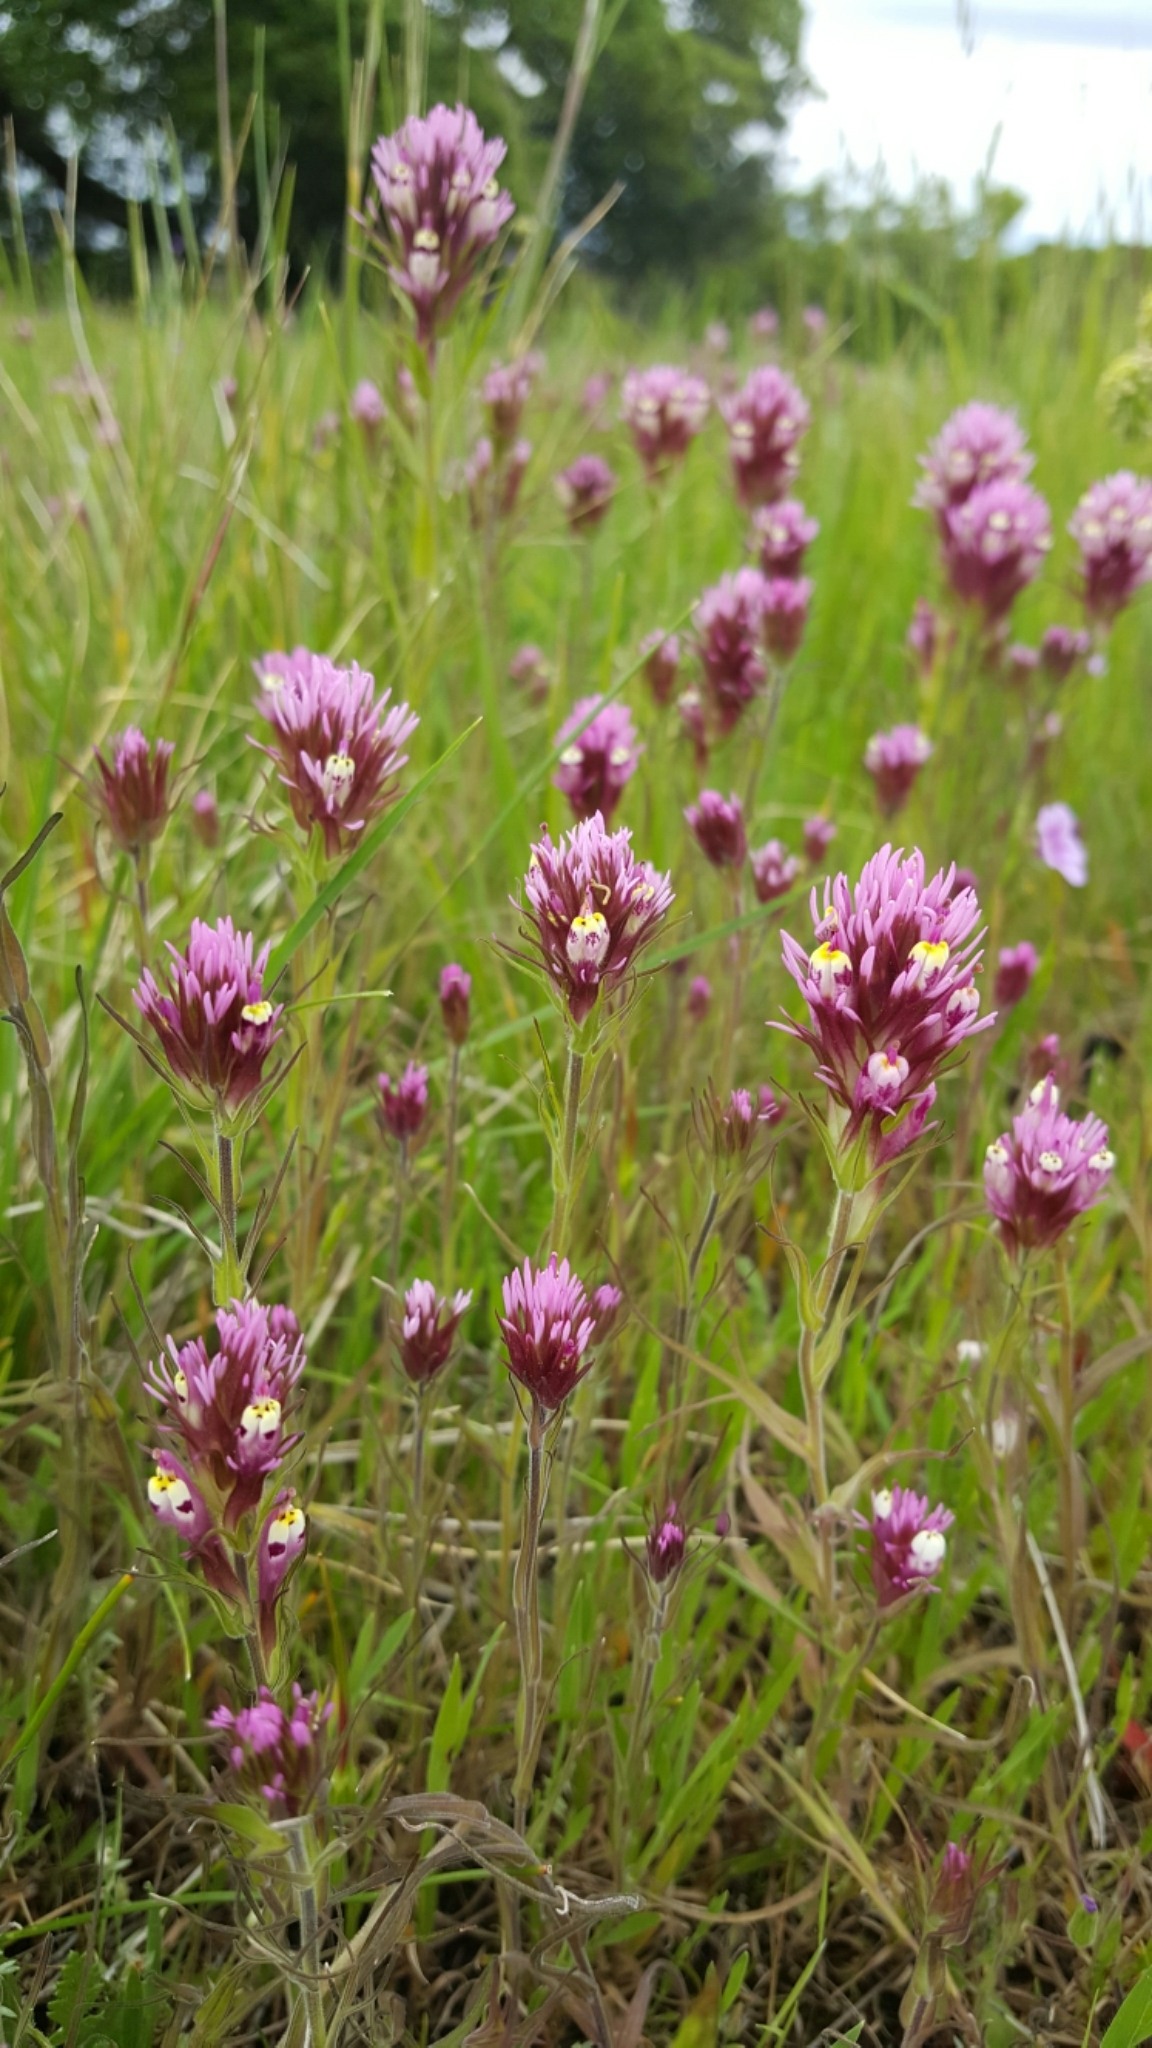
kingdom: Plantae
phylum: Tracheophyta
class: Magnoliopsida
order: Lamiales
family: Orobanchaceae
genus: Castilleja
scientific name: Castilleja densiflora
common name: Dense-flower indian paintbrush
